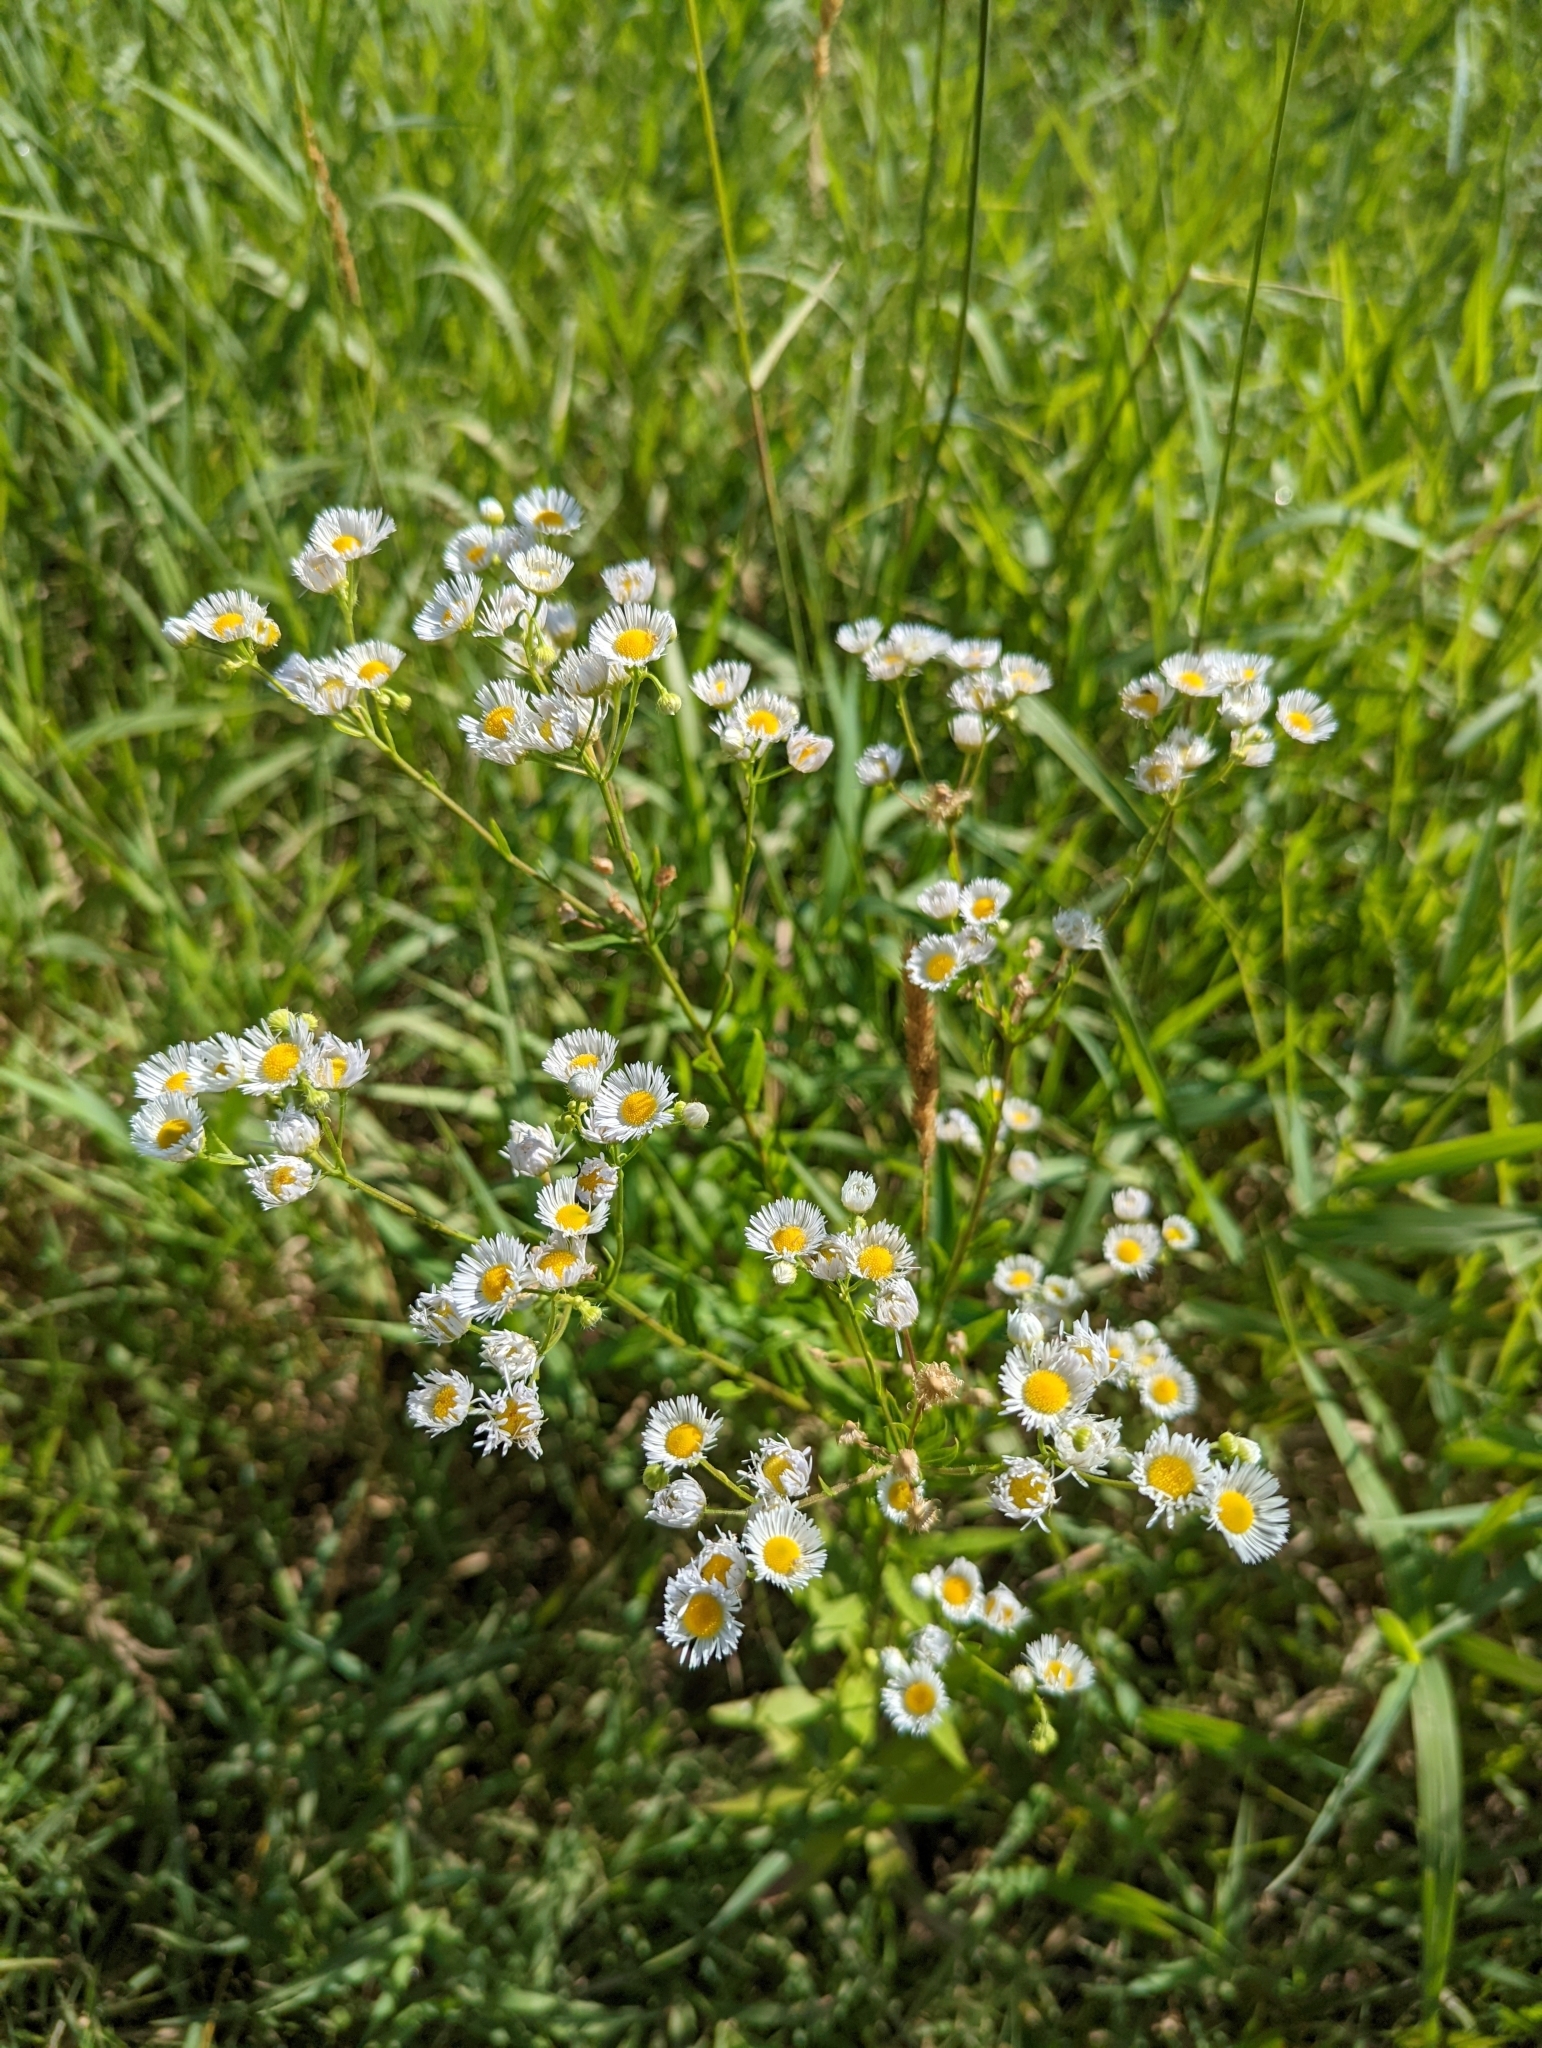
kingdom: Plantae
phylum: Tracheophyta
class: Magnoliopsida
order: Asterales
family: Asteraceae
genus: Erigeron
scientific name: Erigeron annuus
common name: Tall fleabane
